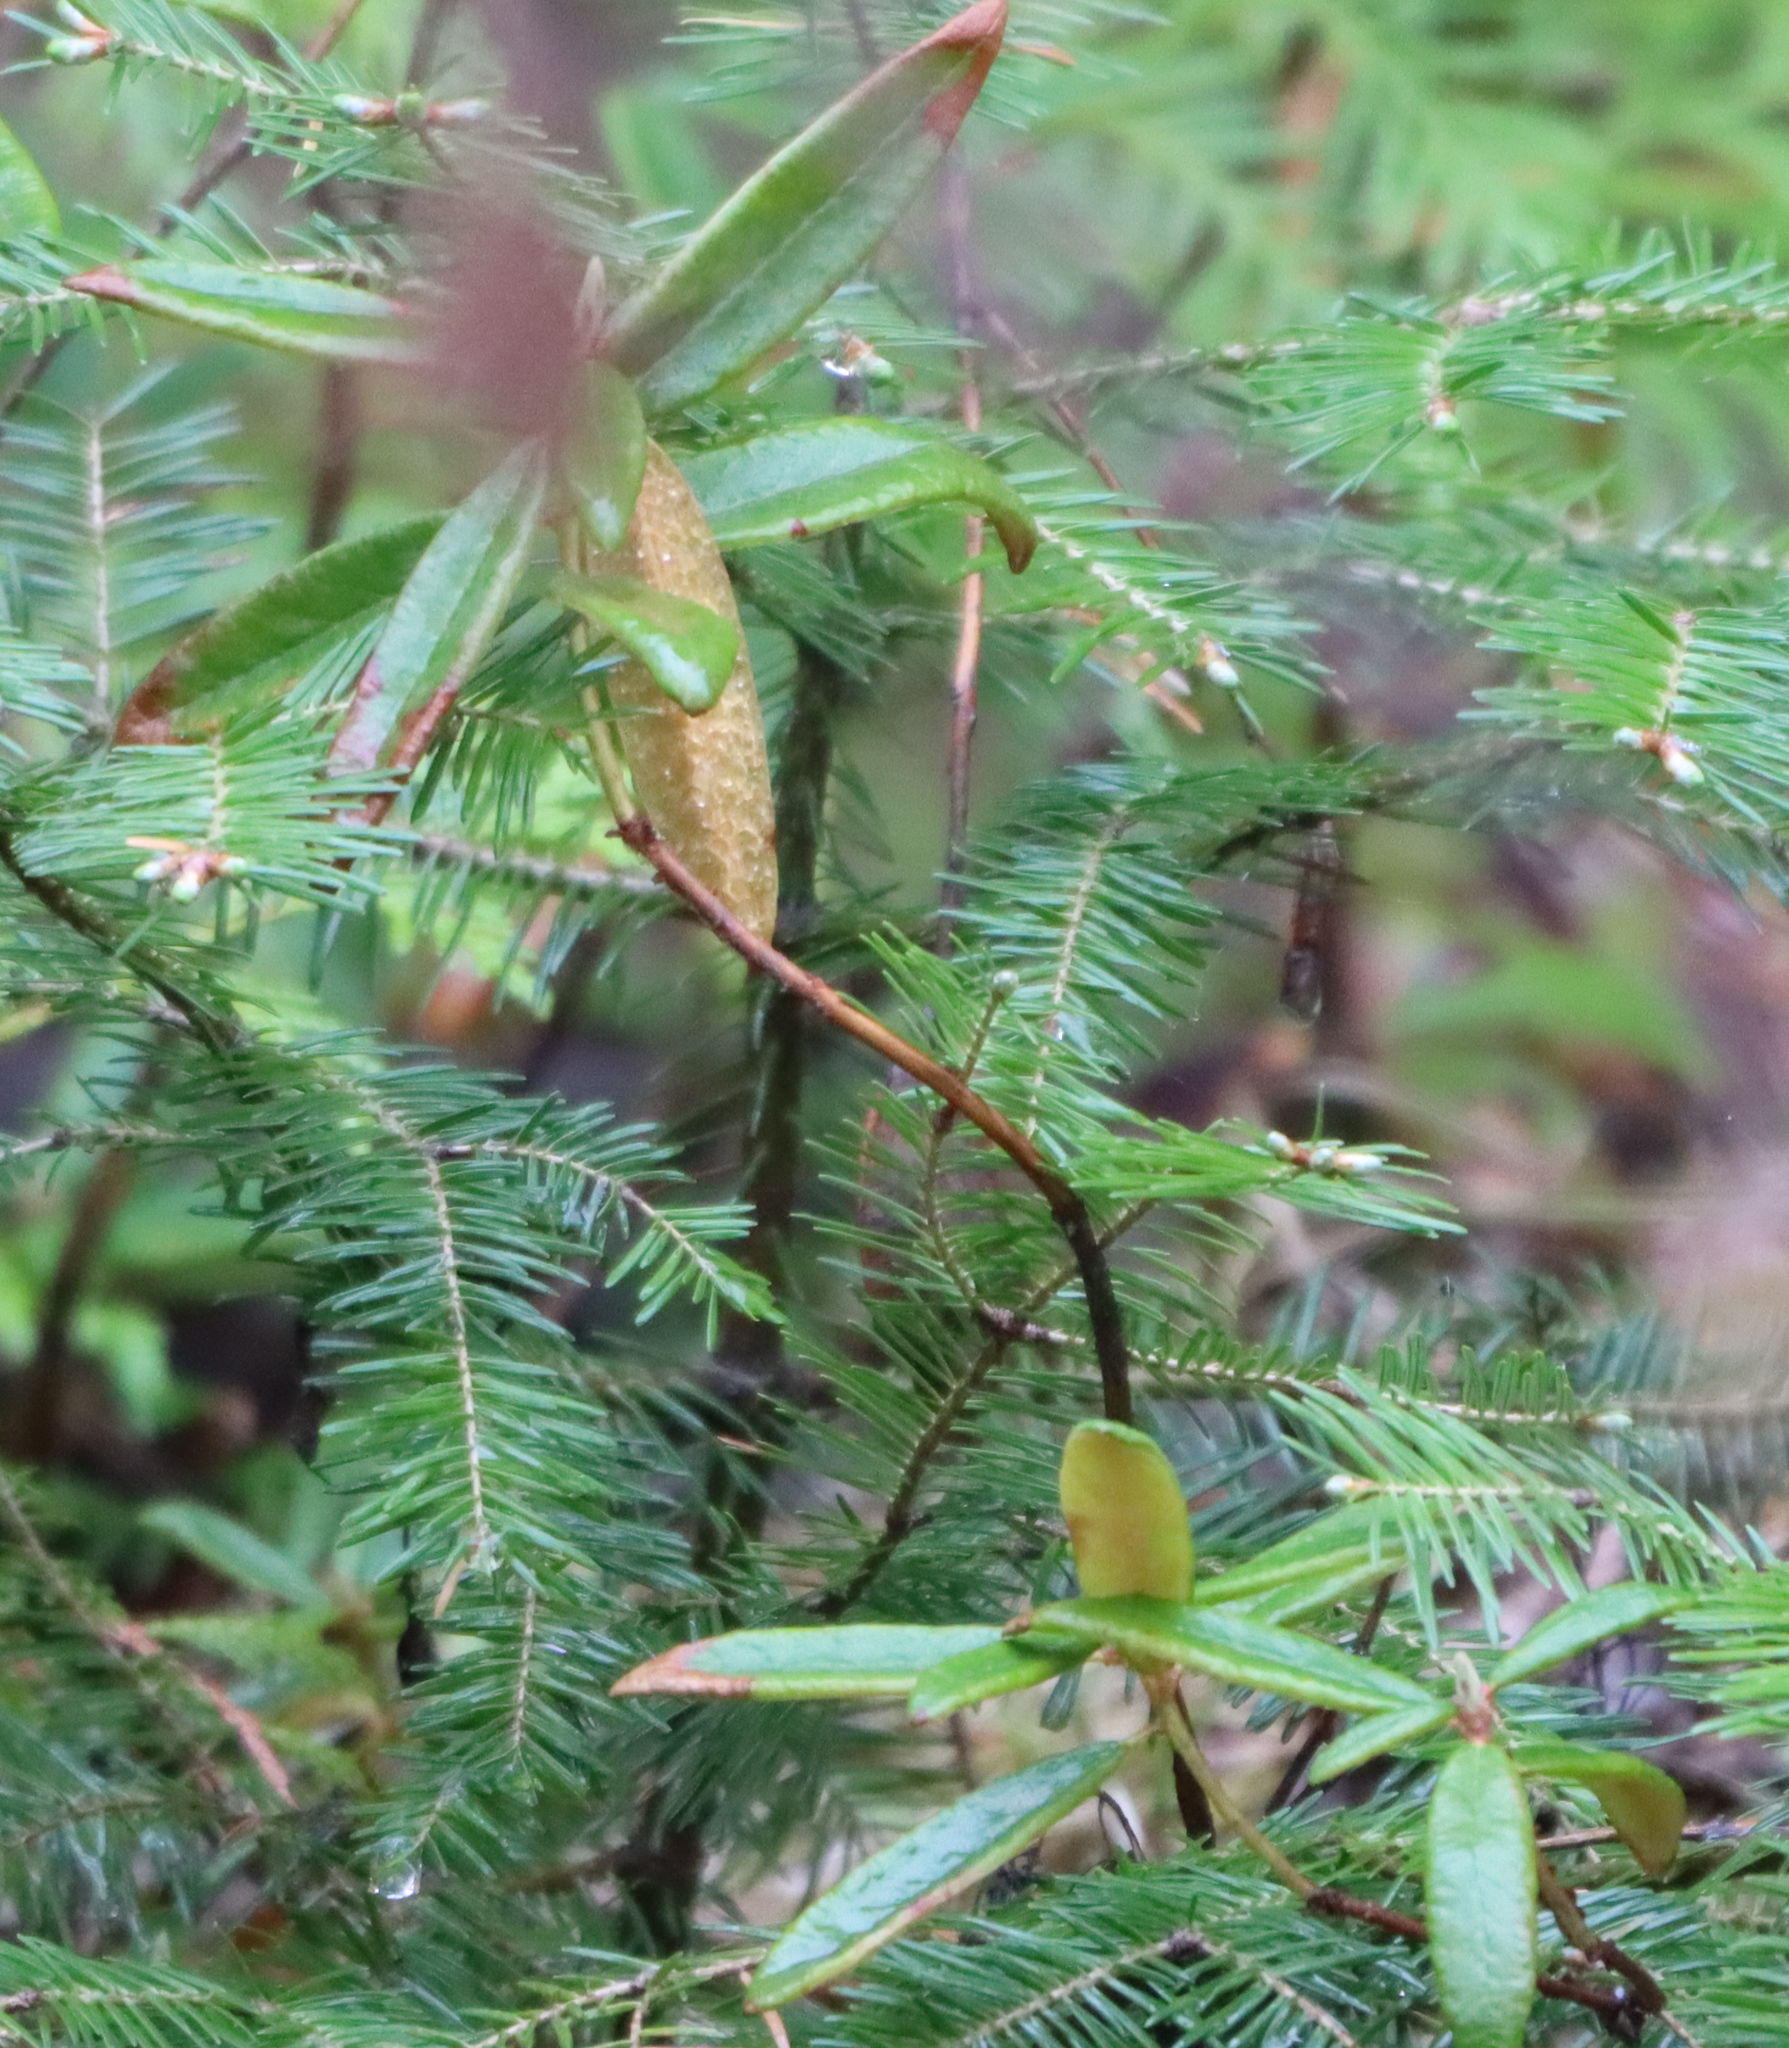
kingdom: Plantae
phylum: Tracheophyta
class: Magnoliopsida
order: Ericales
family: Ericaceae
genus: Rhododendron
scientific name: Rhododendron groenlandicum
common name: Bog labrador tea
